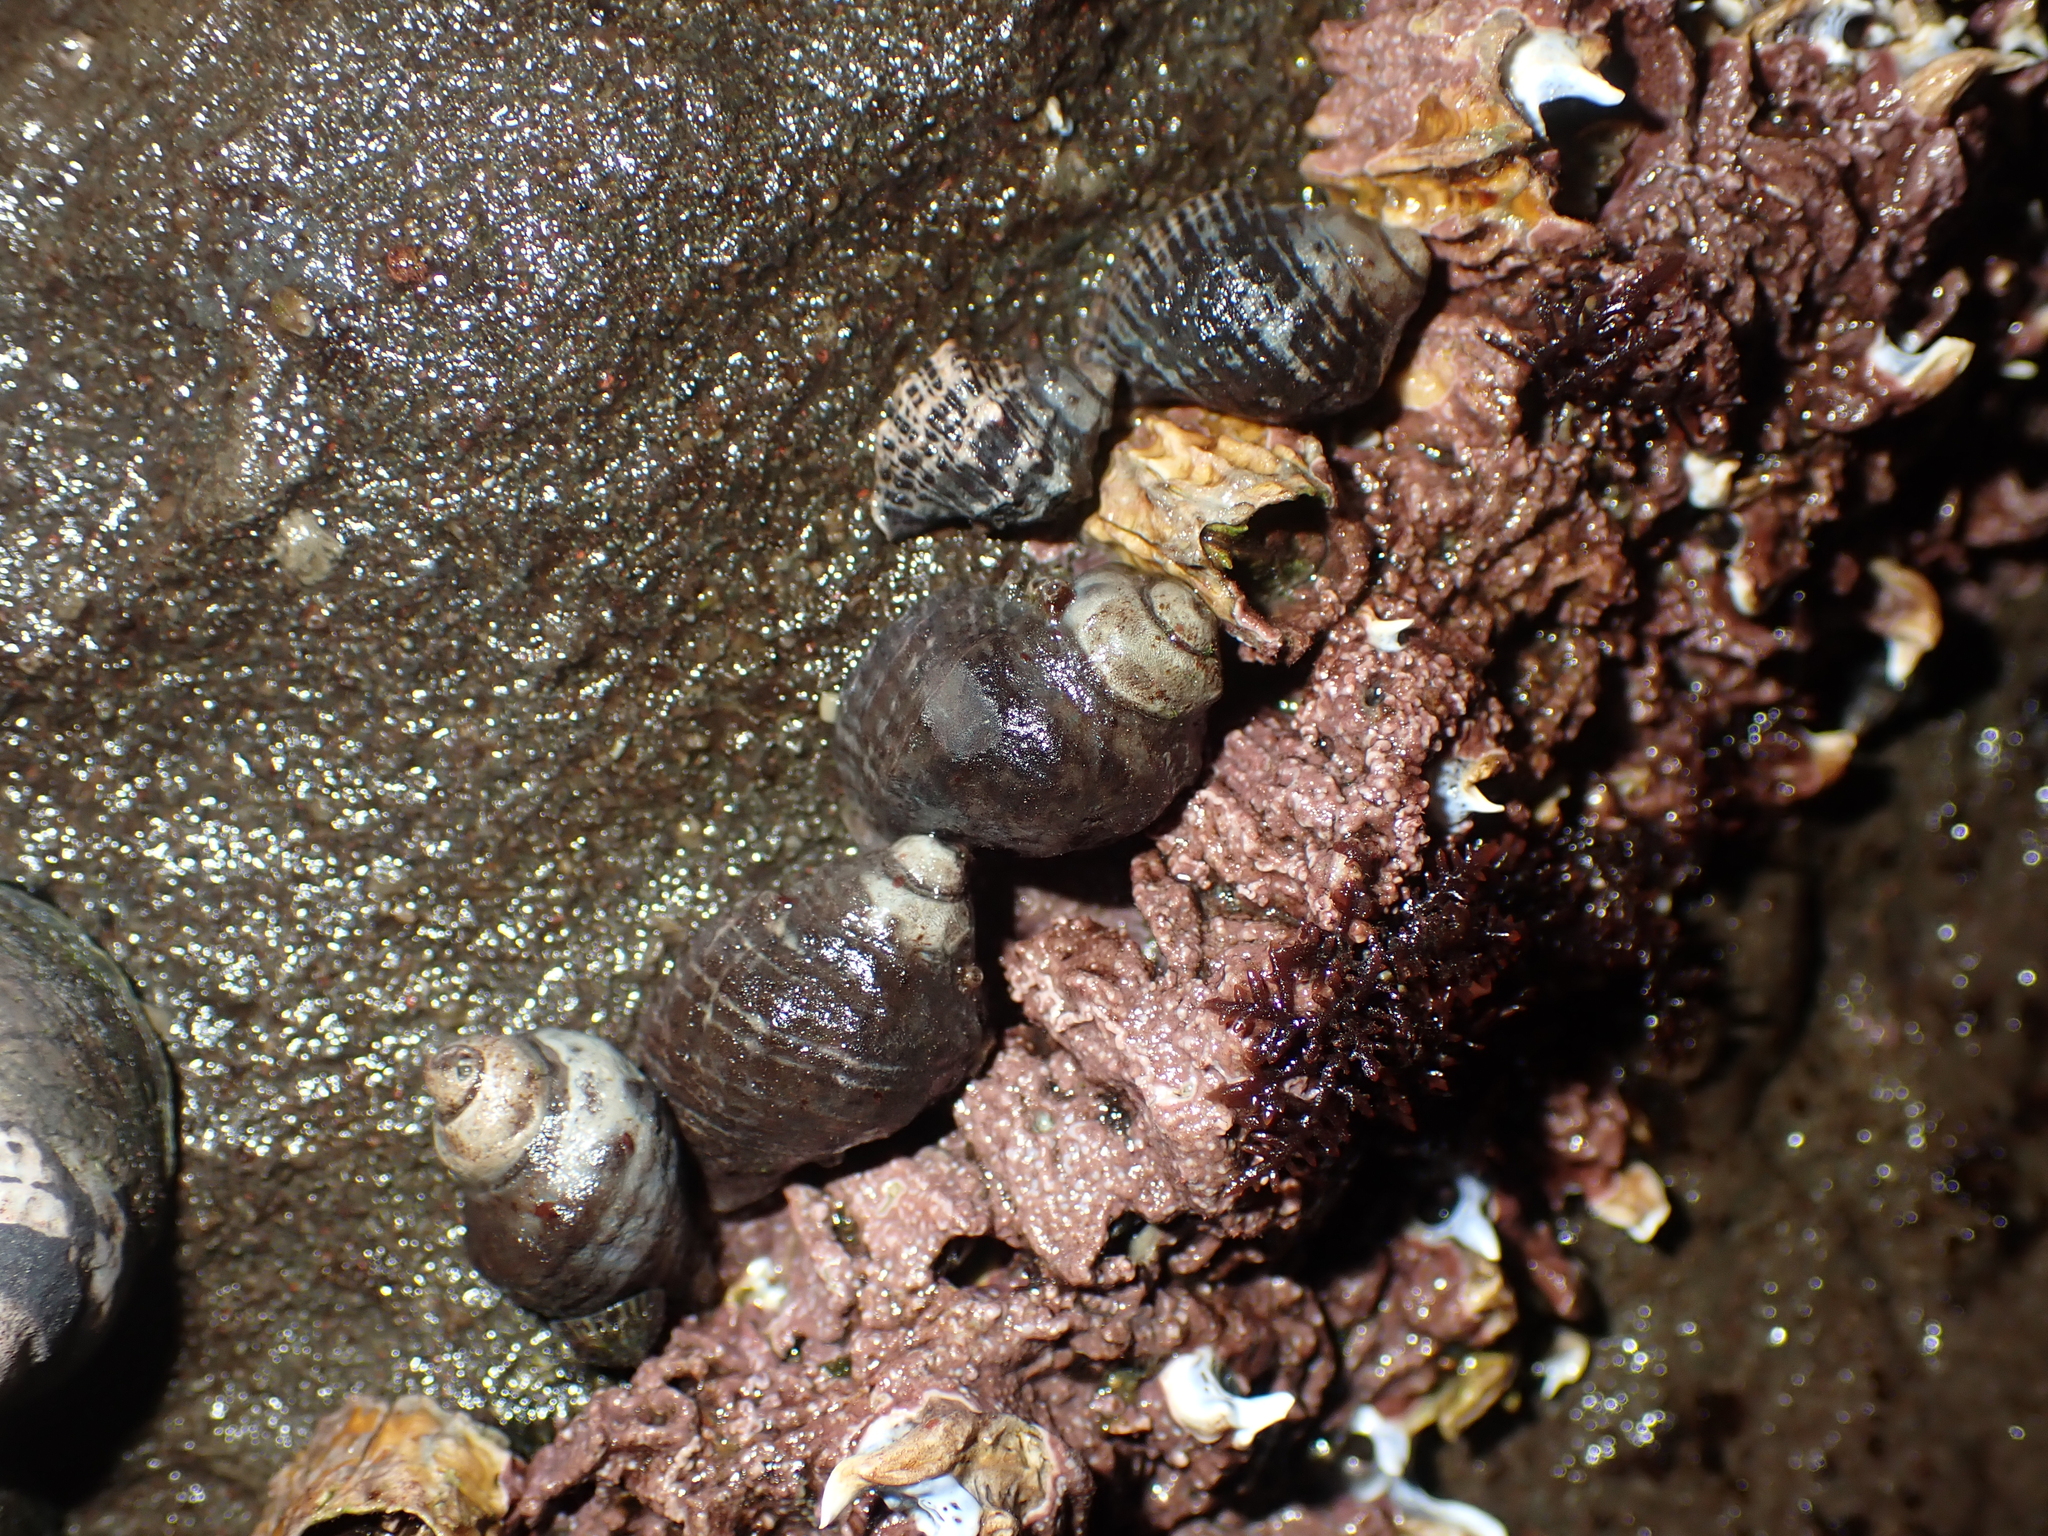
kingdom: Animalia
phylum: Mollusca
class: Gastropoda
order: Neogastropoda
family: Muricidae
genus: Haustrum
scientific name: Haustrum albomarginatum
